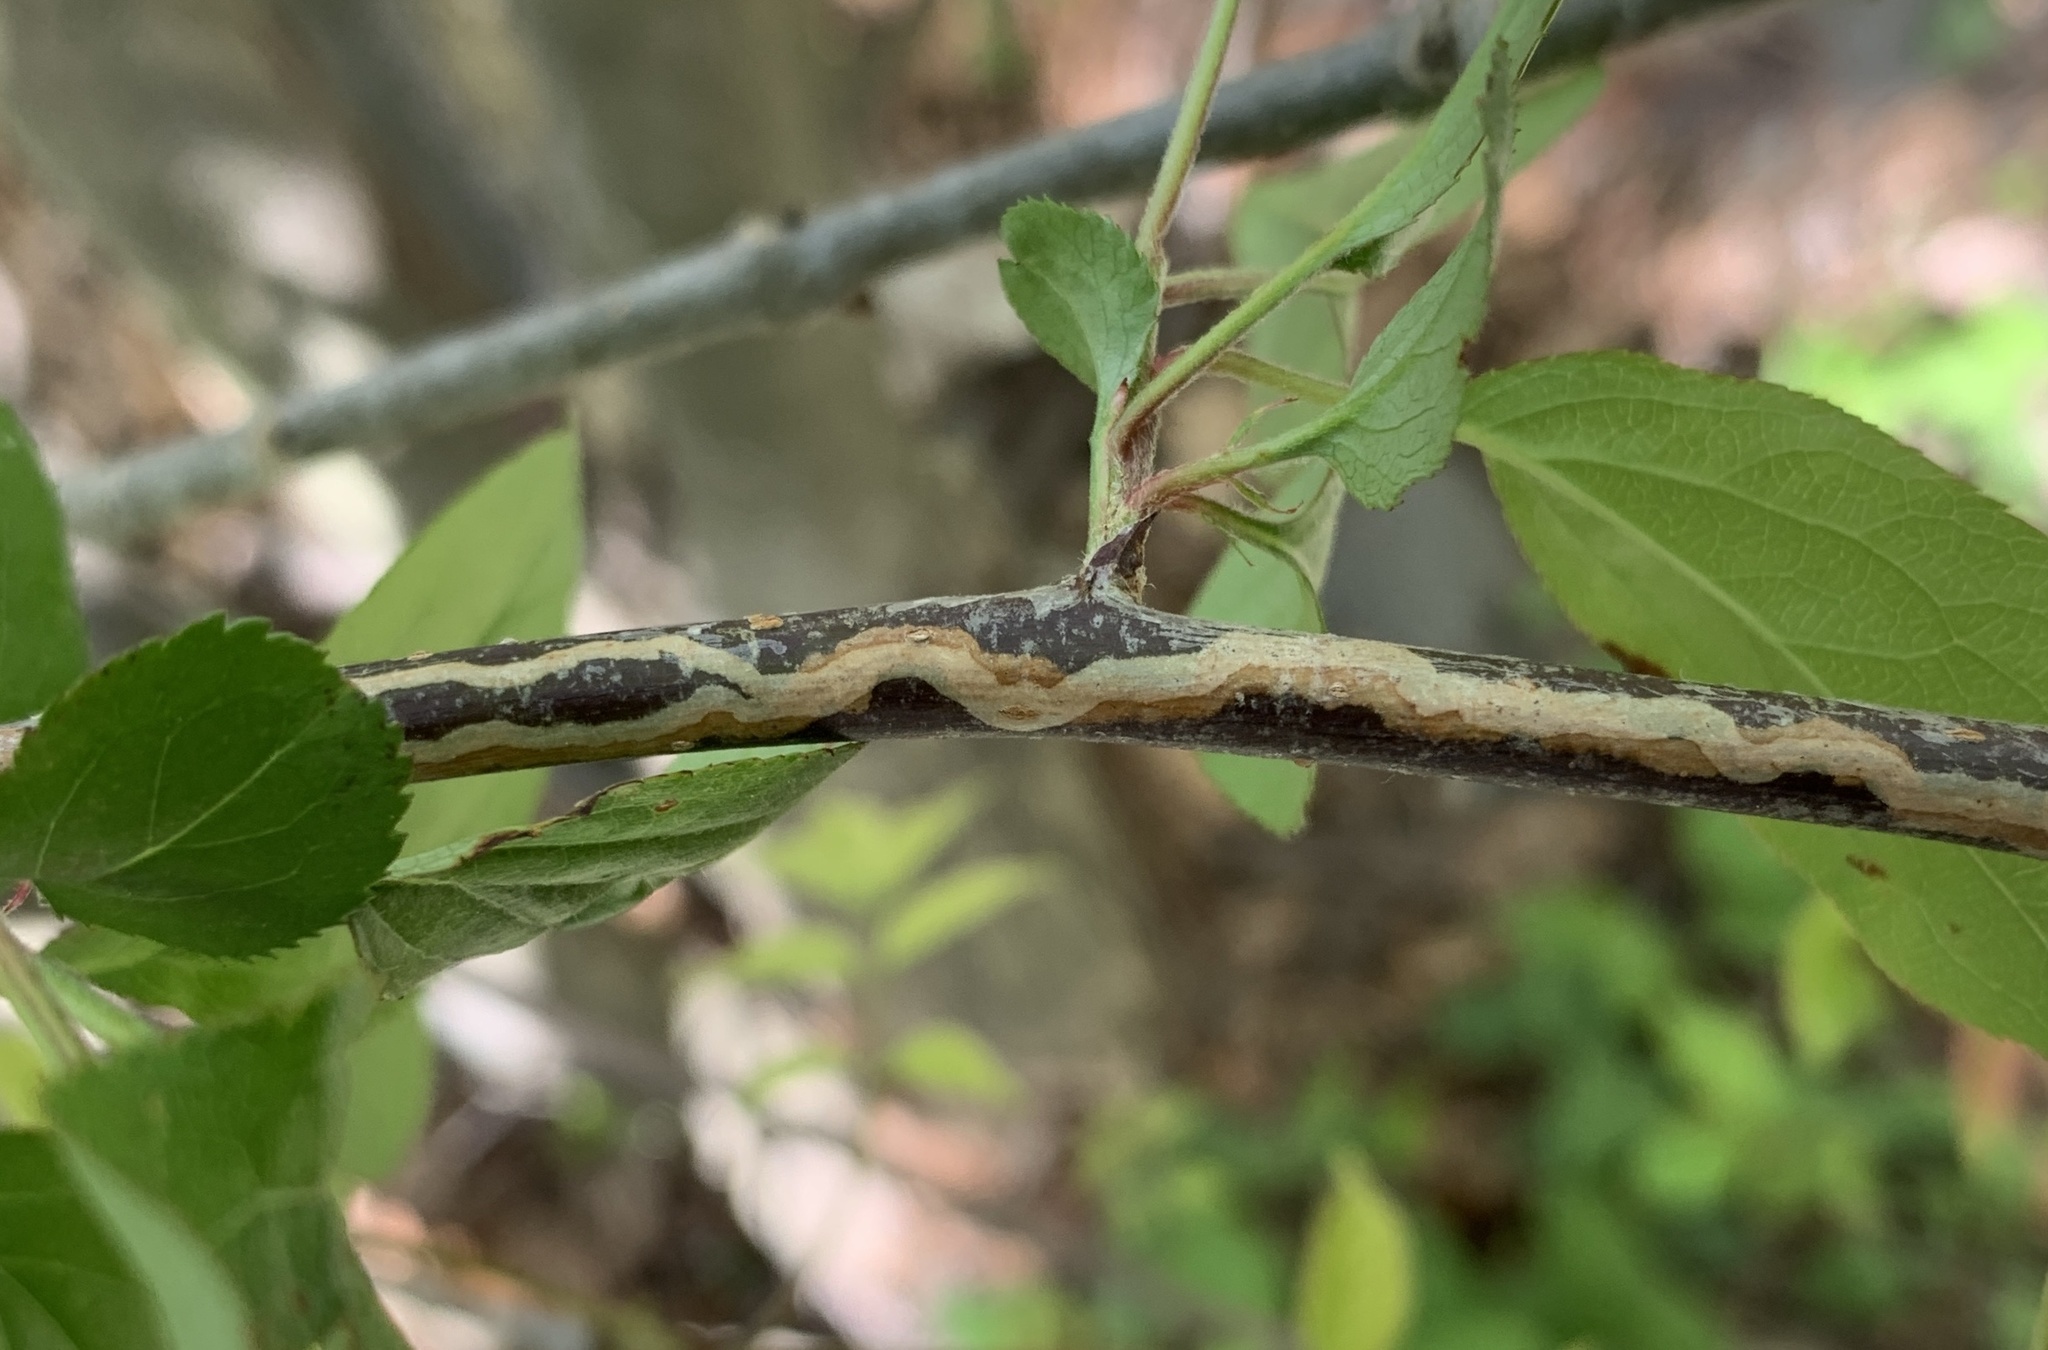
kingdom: Animalia
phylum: Arthropoda
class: Insecta
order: Lepidoptera
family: Gracillariidae
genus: Marmara
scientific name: Marmara elotella
